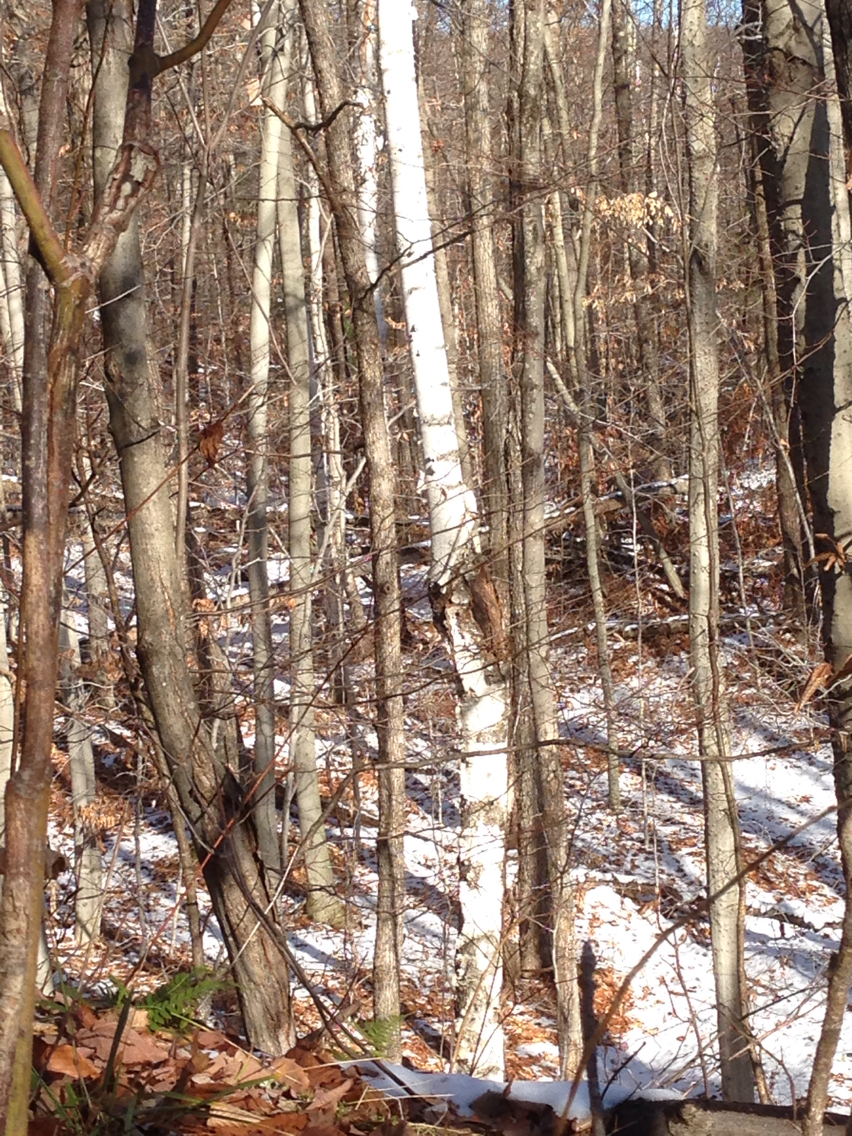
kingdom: Plantae
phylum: Tracheophyta
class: Magnoliopsida
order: Fagales
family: Betulaceae
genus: Betula
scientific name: Betula papyrifera
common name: Paper birch
